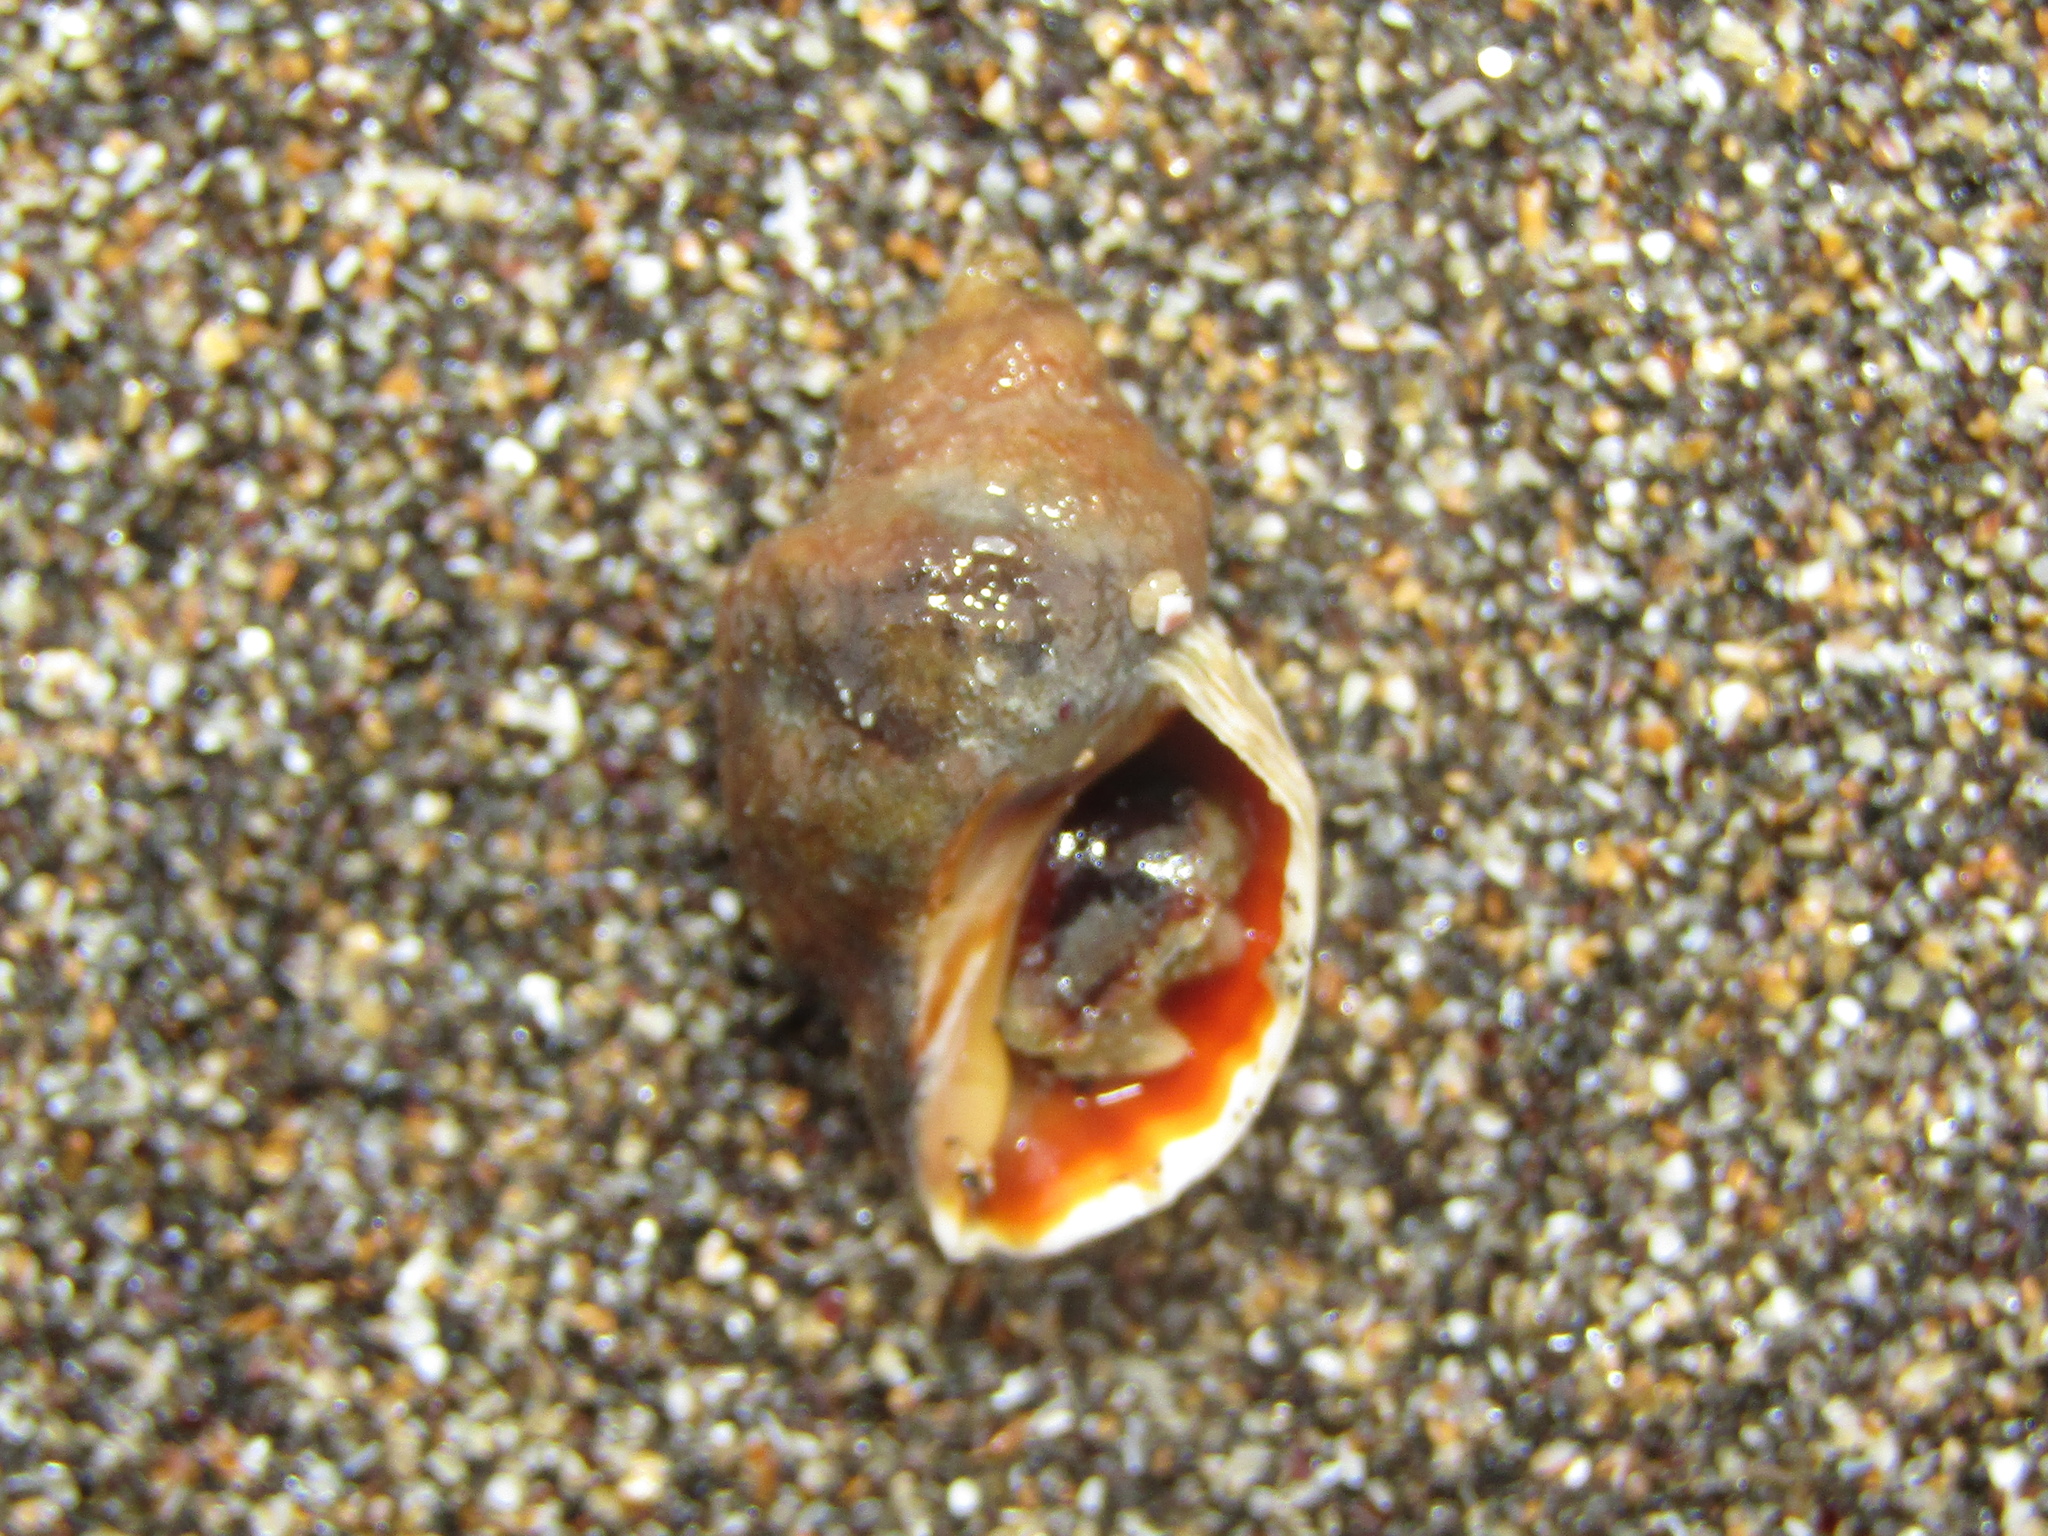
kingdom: Animalia
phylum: Mollusca
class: Gastropoda
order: Neogastropoda
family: Muricidae
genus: Haustrum
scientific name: Haustrum albomarginatum
